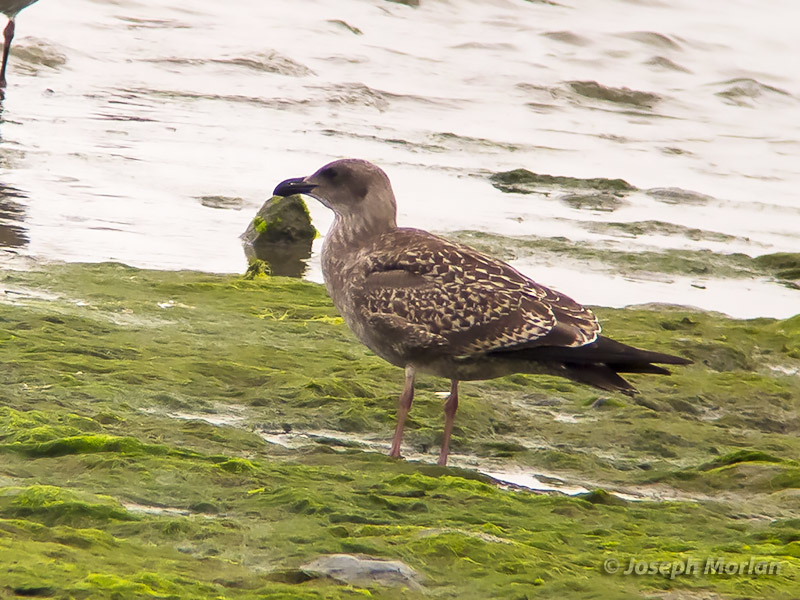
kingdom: Animalia
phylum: Chordata
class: Aves
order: Charadriiformes
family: Laridae
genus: Larus
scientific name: Larus occidentalis
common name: Western gull
